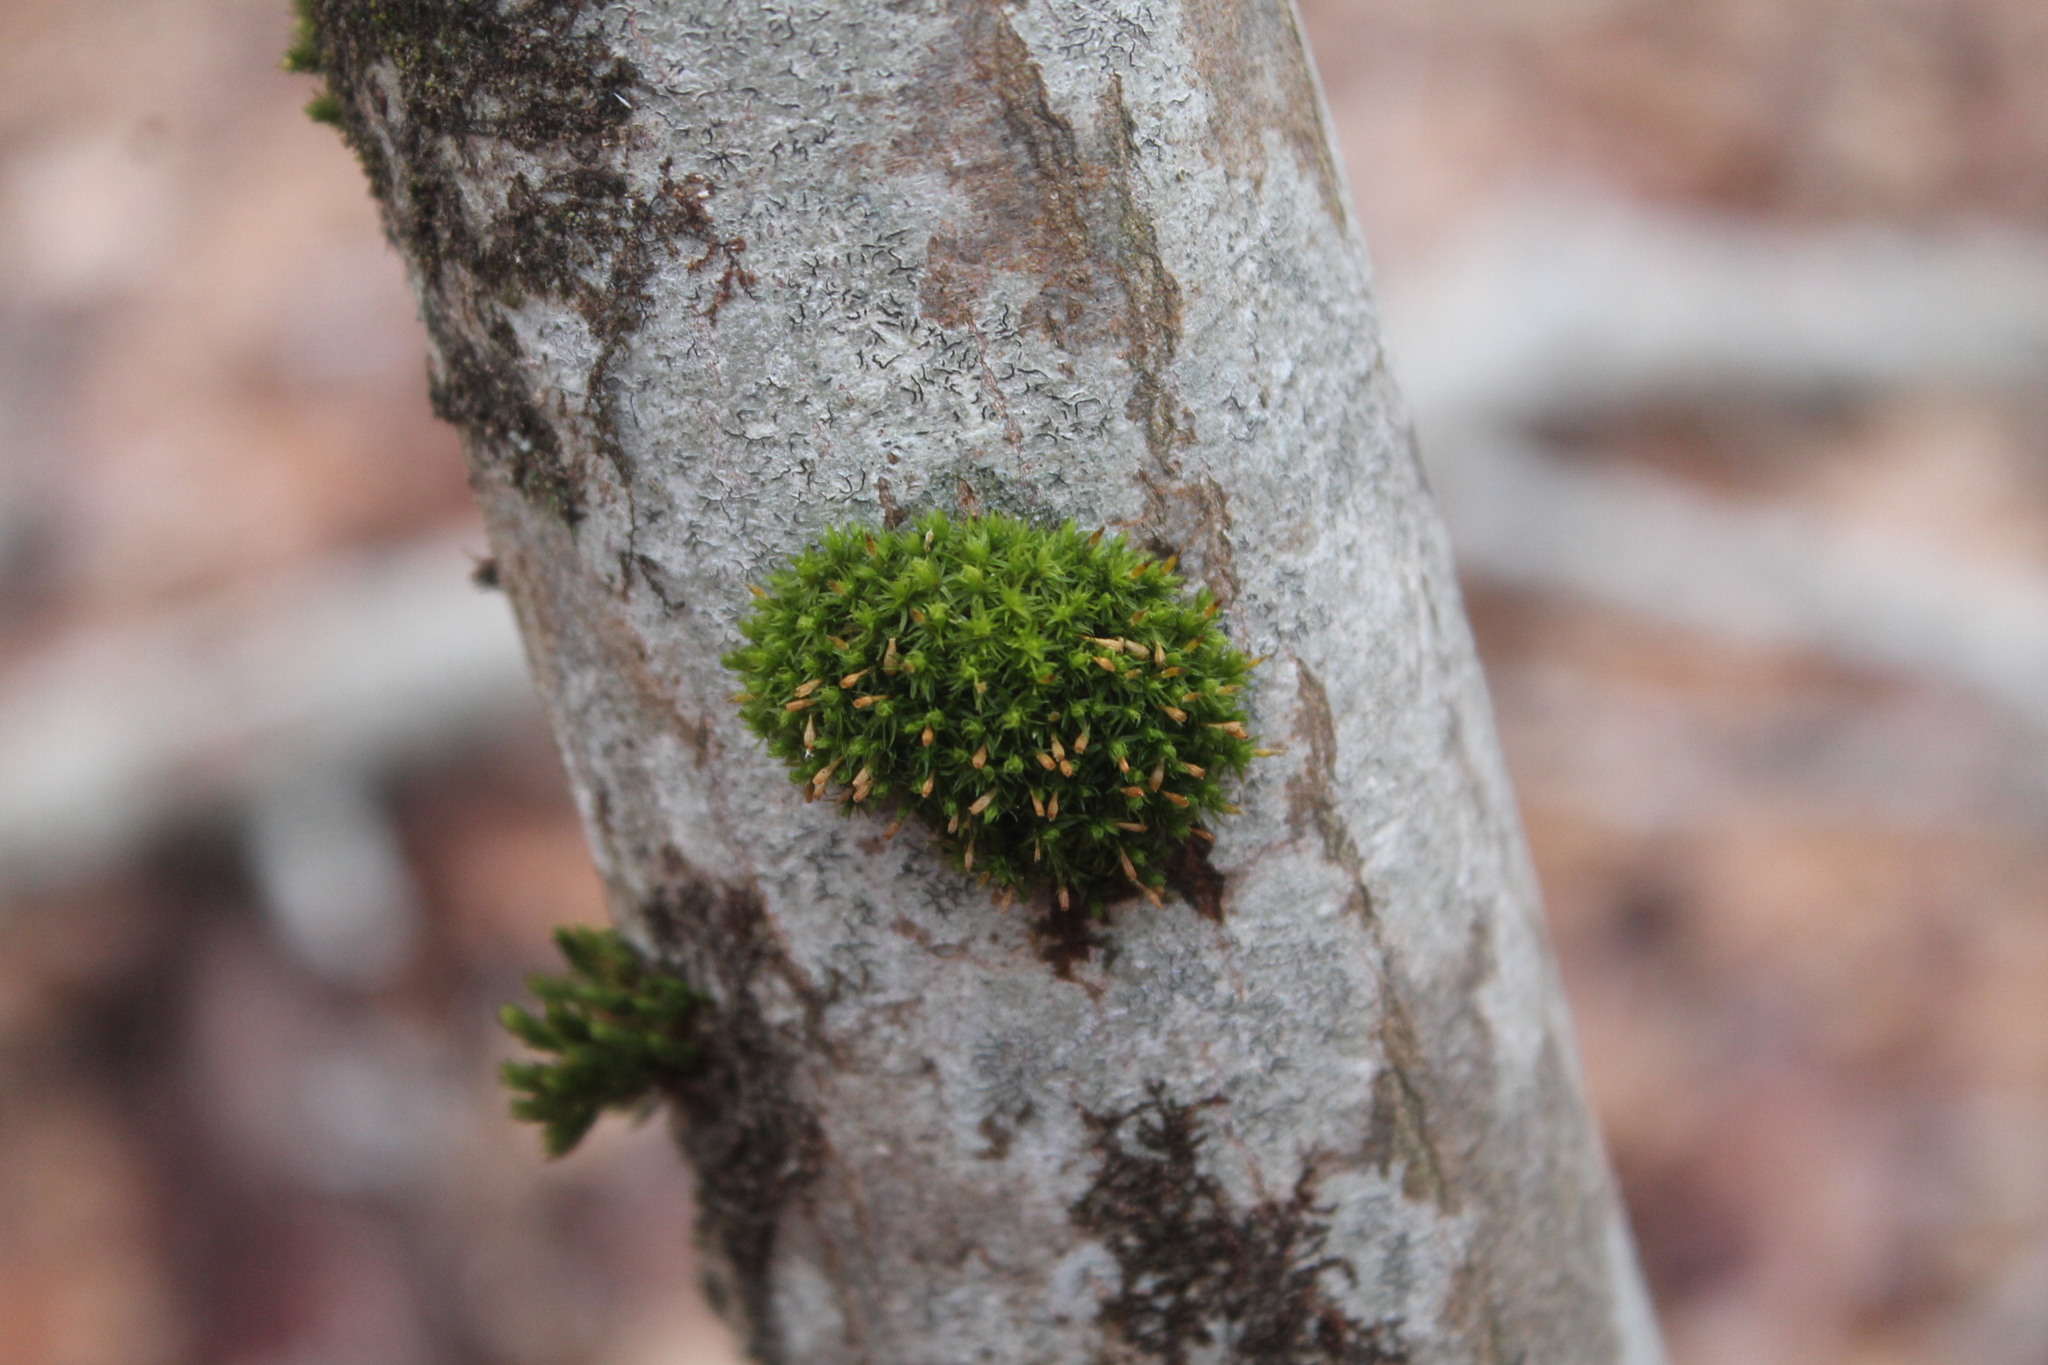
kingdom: Plantae
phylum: Bryophyta
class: Bryopsida
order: Orthotrichales
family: Orthotrichaceae
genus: Ulota
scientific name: Ulota crispa
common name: Crisped pincushion moss
